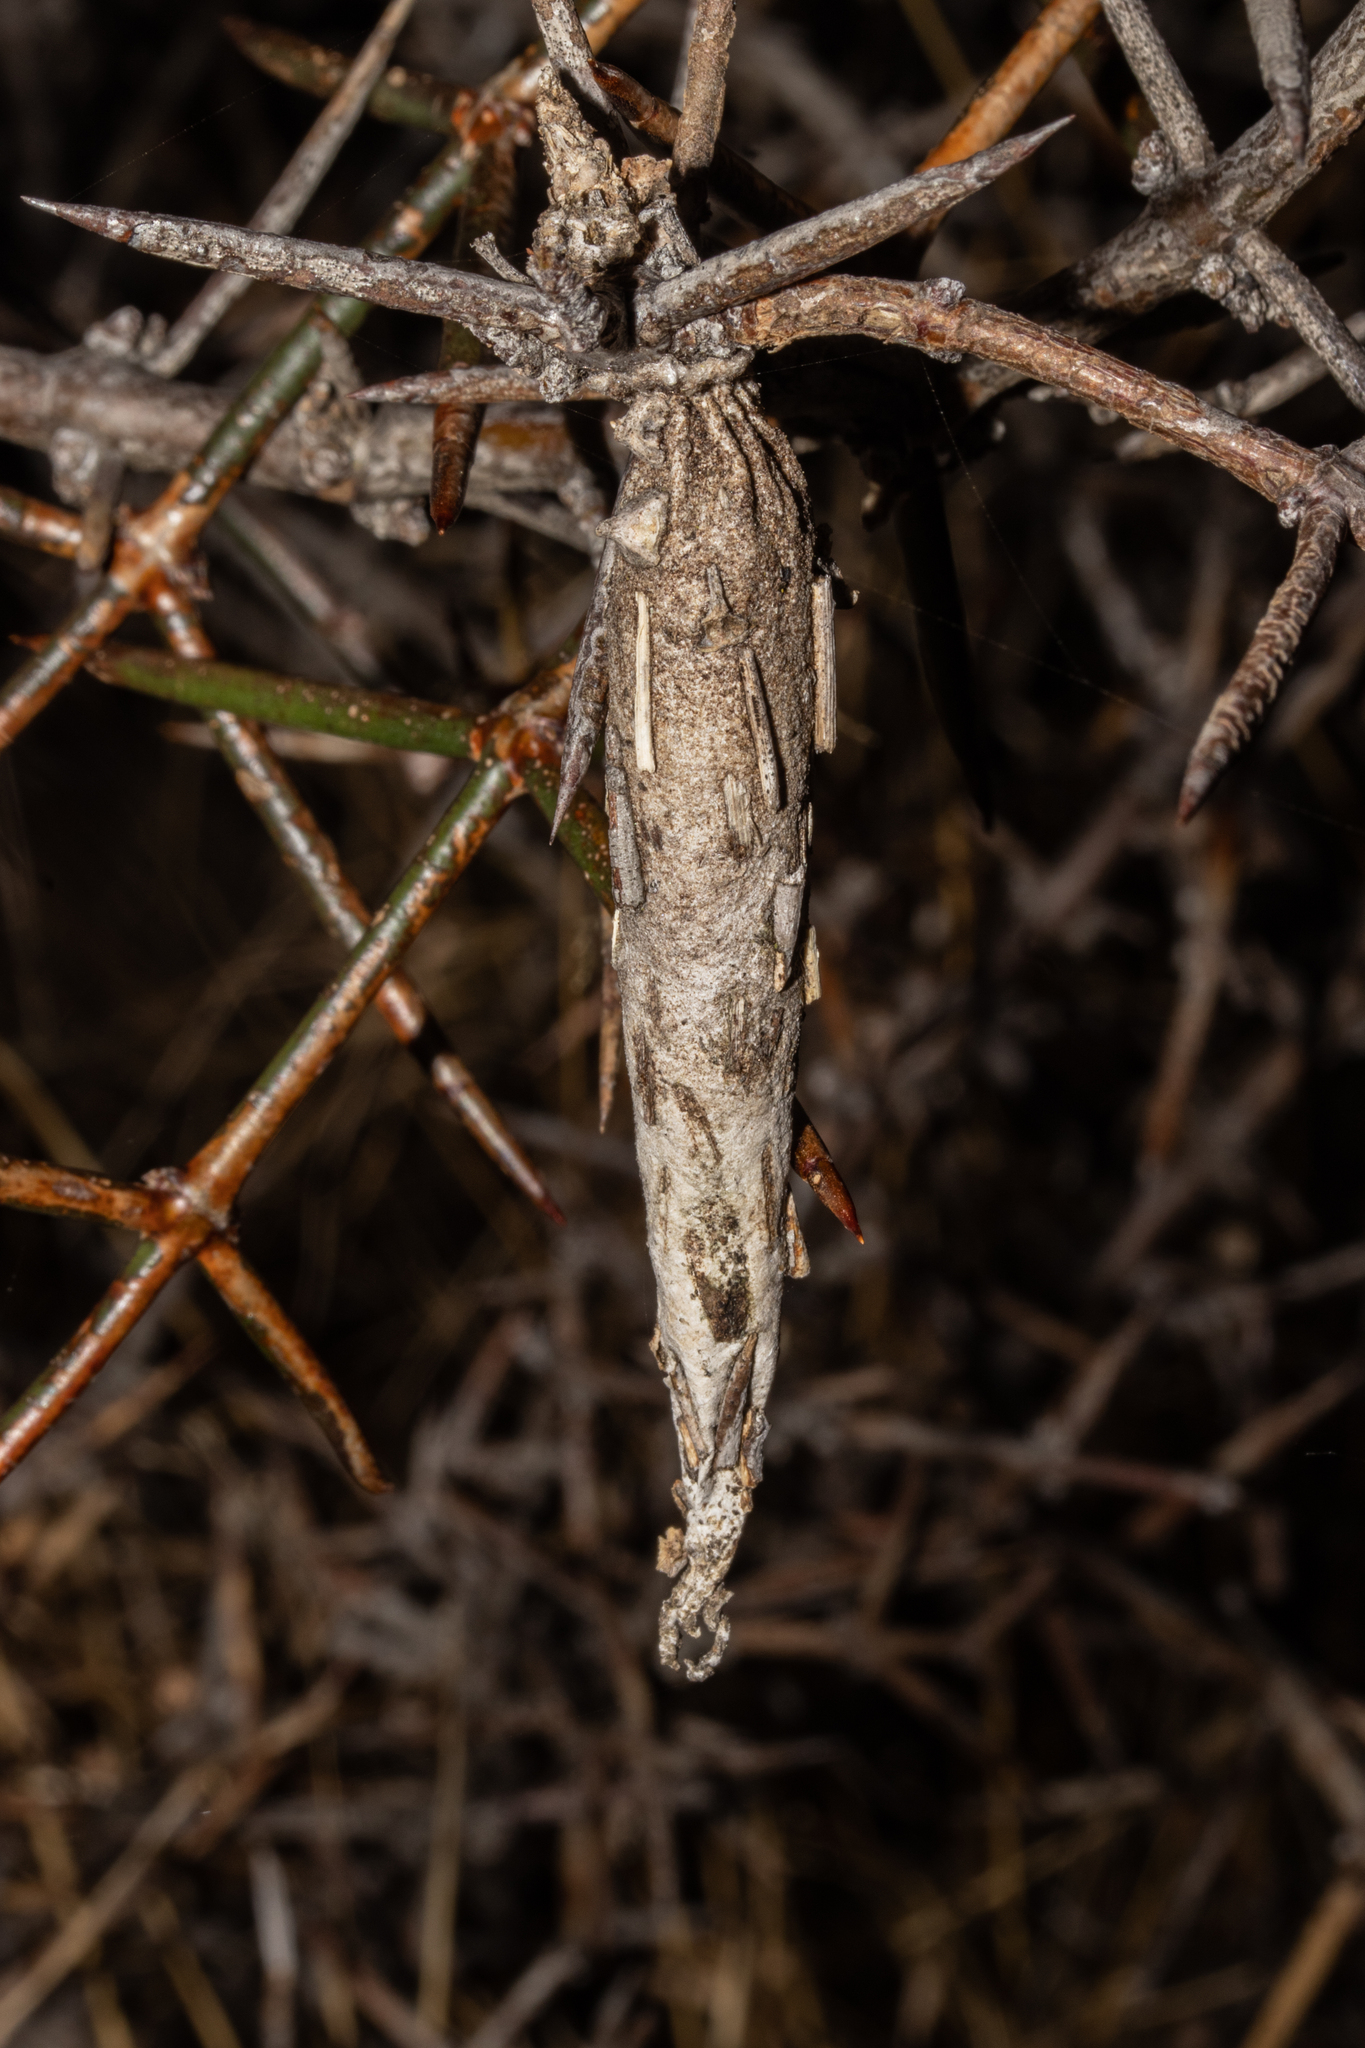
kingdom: Animalia
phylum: Arthropoda
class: Insecta
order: Lepidoptera
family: Psychidae
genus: Liothula
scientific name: Liothula omnivora
